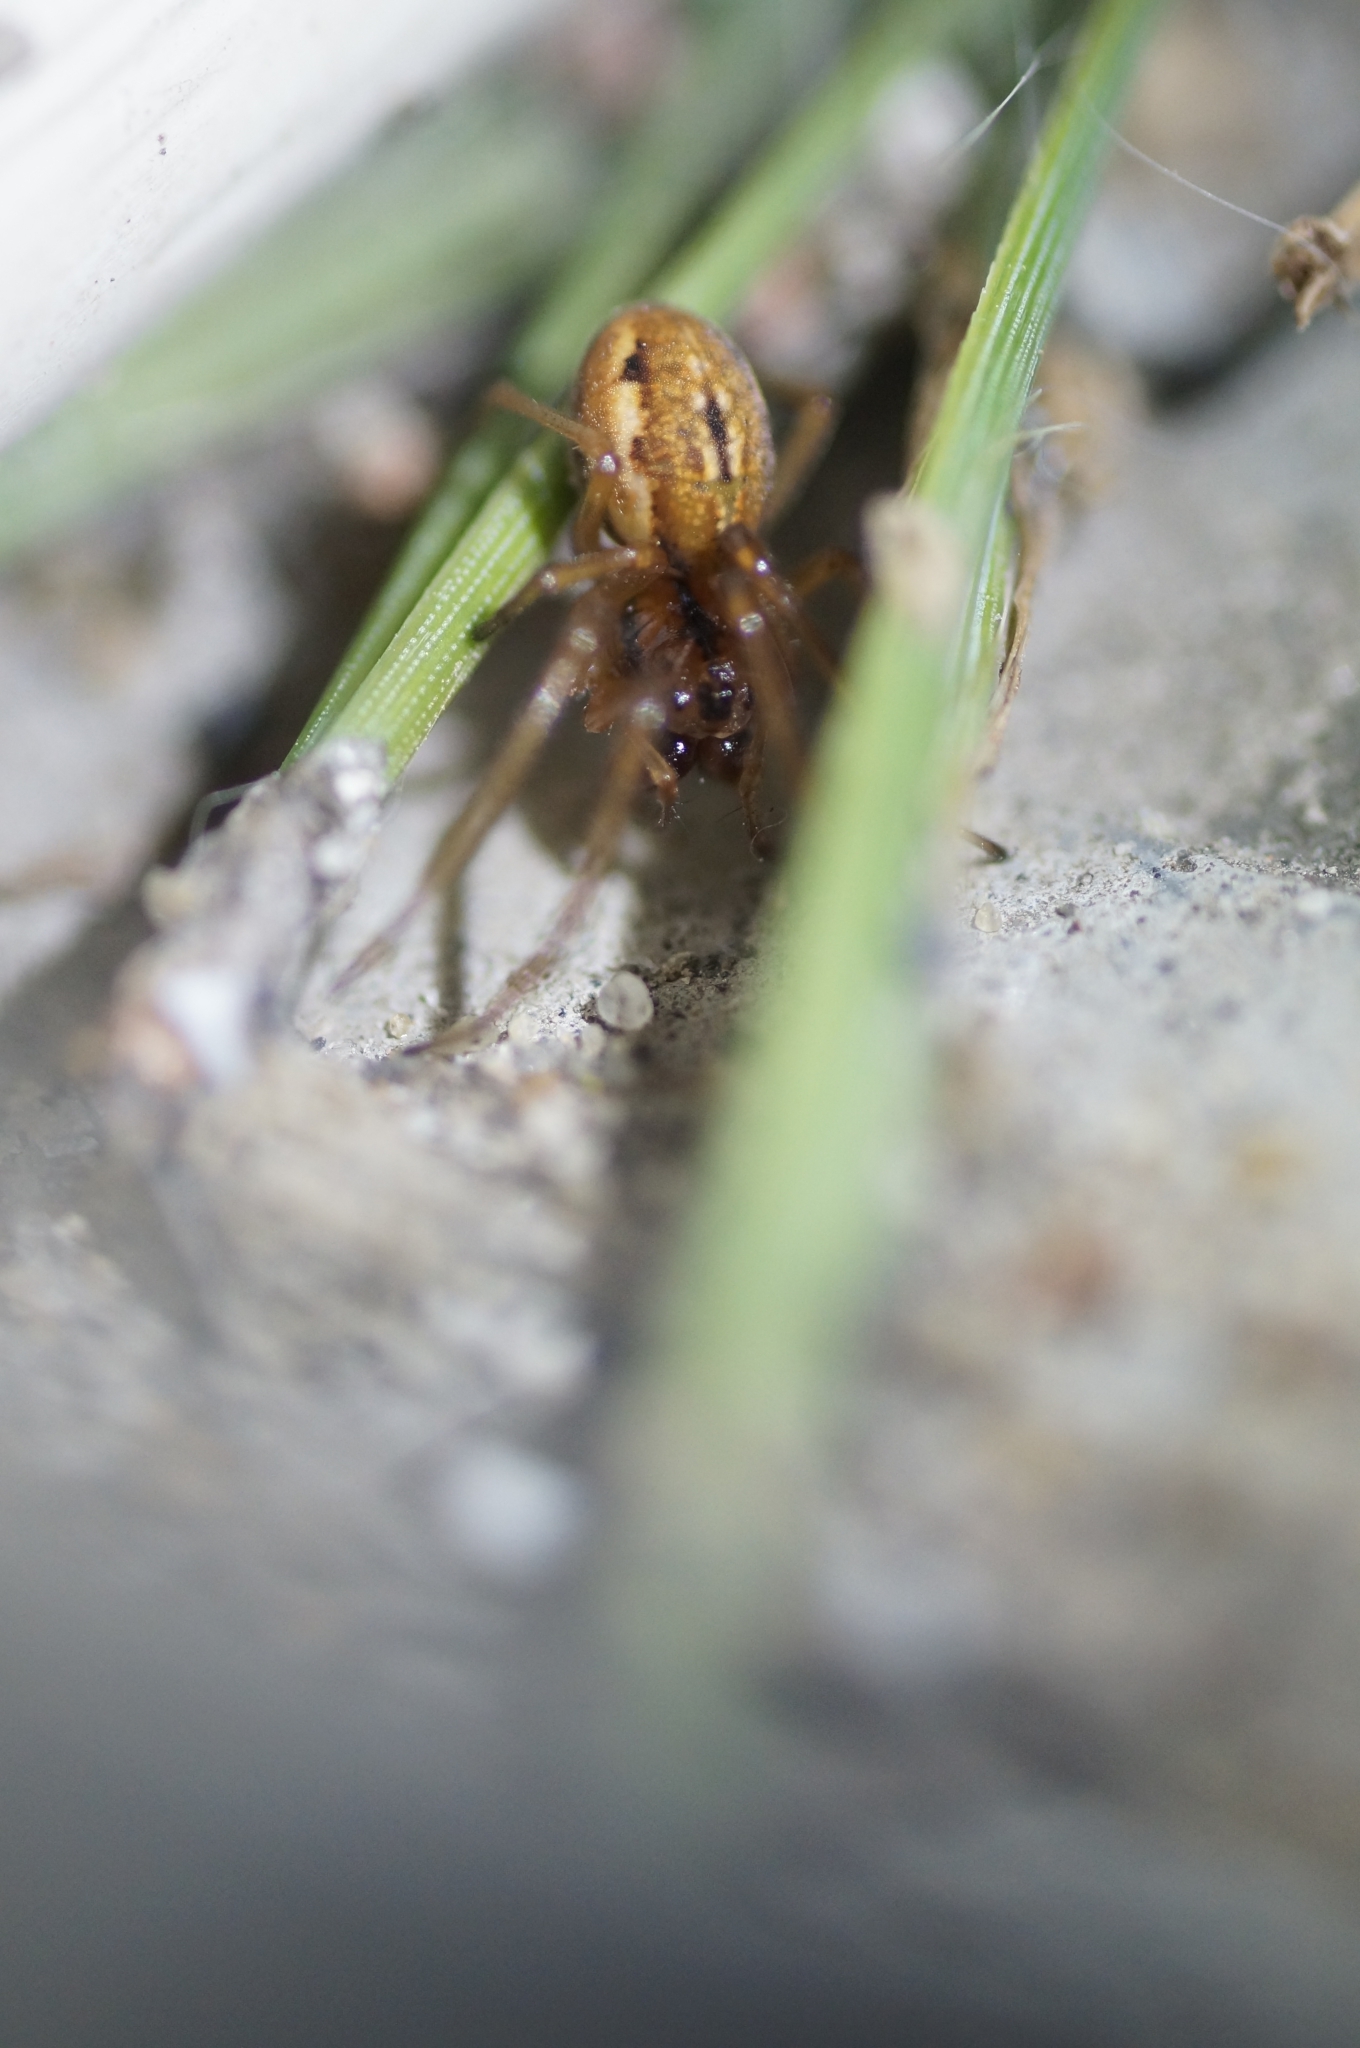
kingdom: Animalia
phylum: Arthropoda
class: Arachnida
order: Araneae
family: Tetragnathidae
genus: Pachygnatha
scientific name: Pachygnatha clercki
